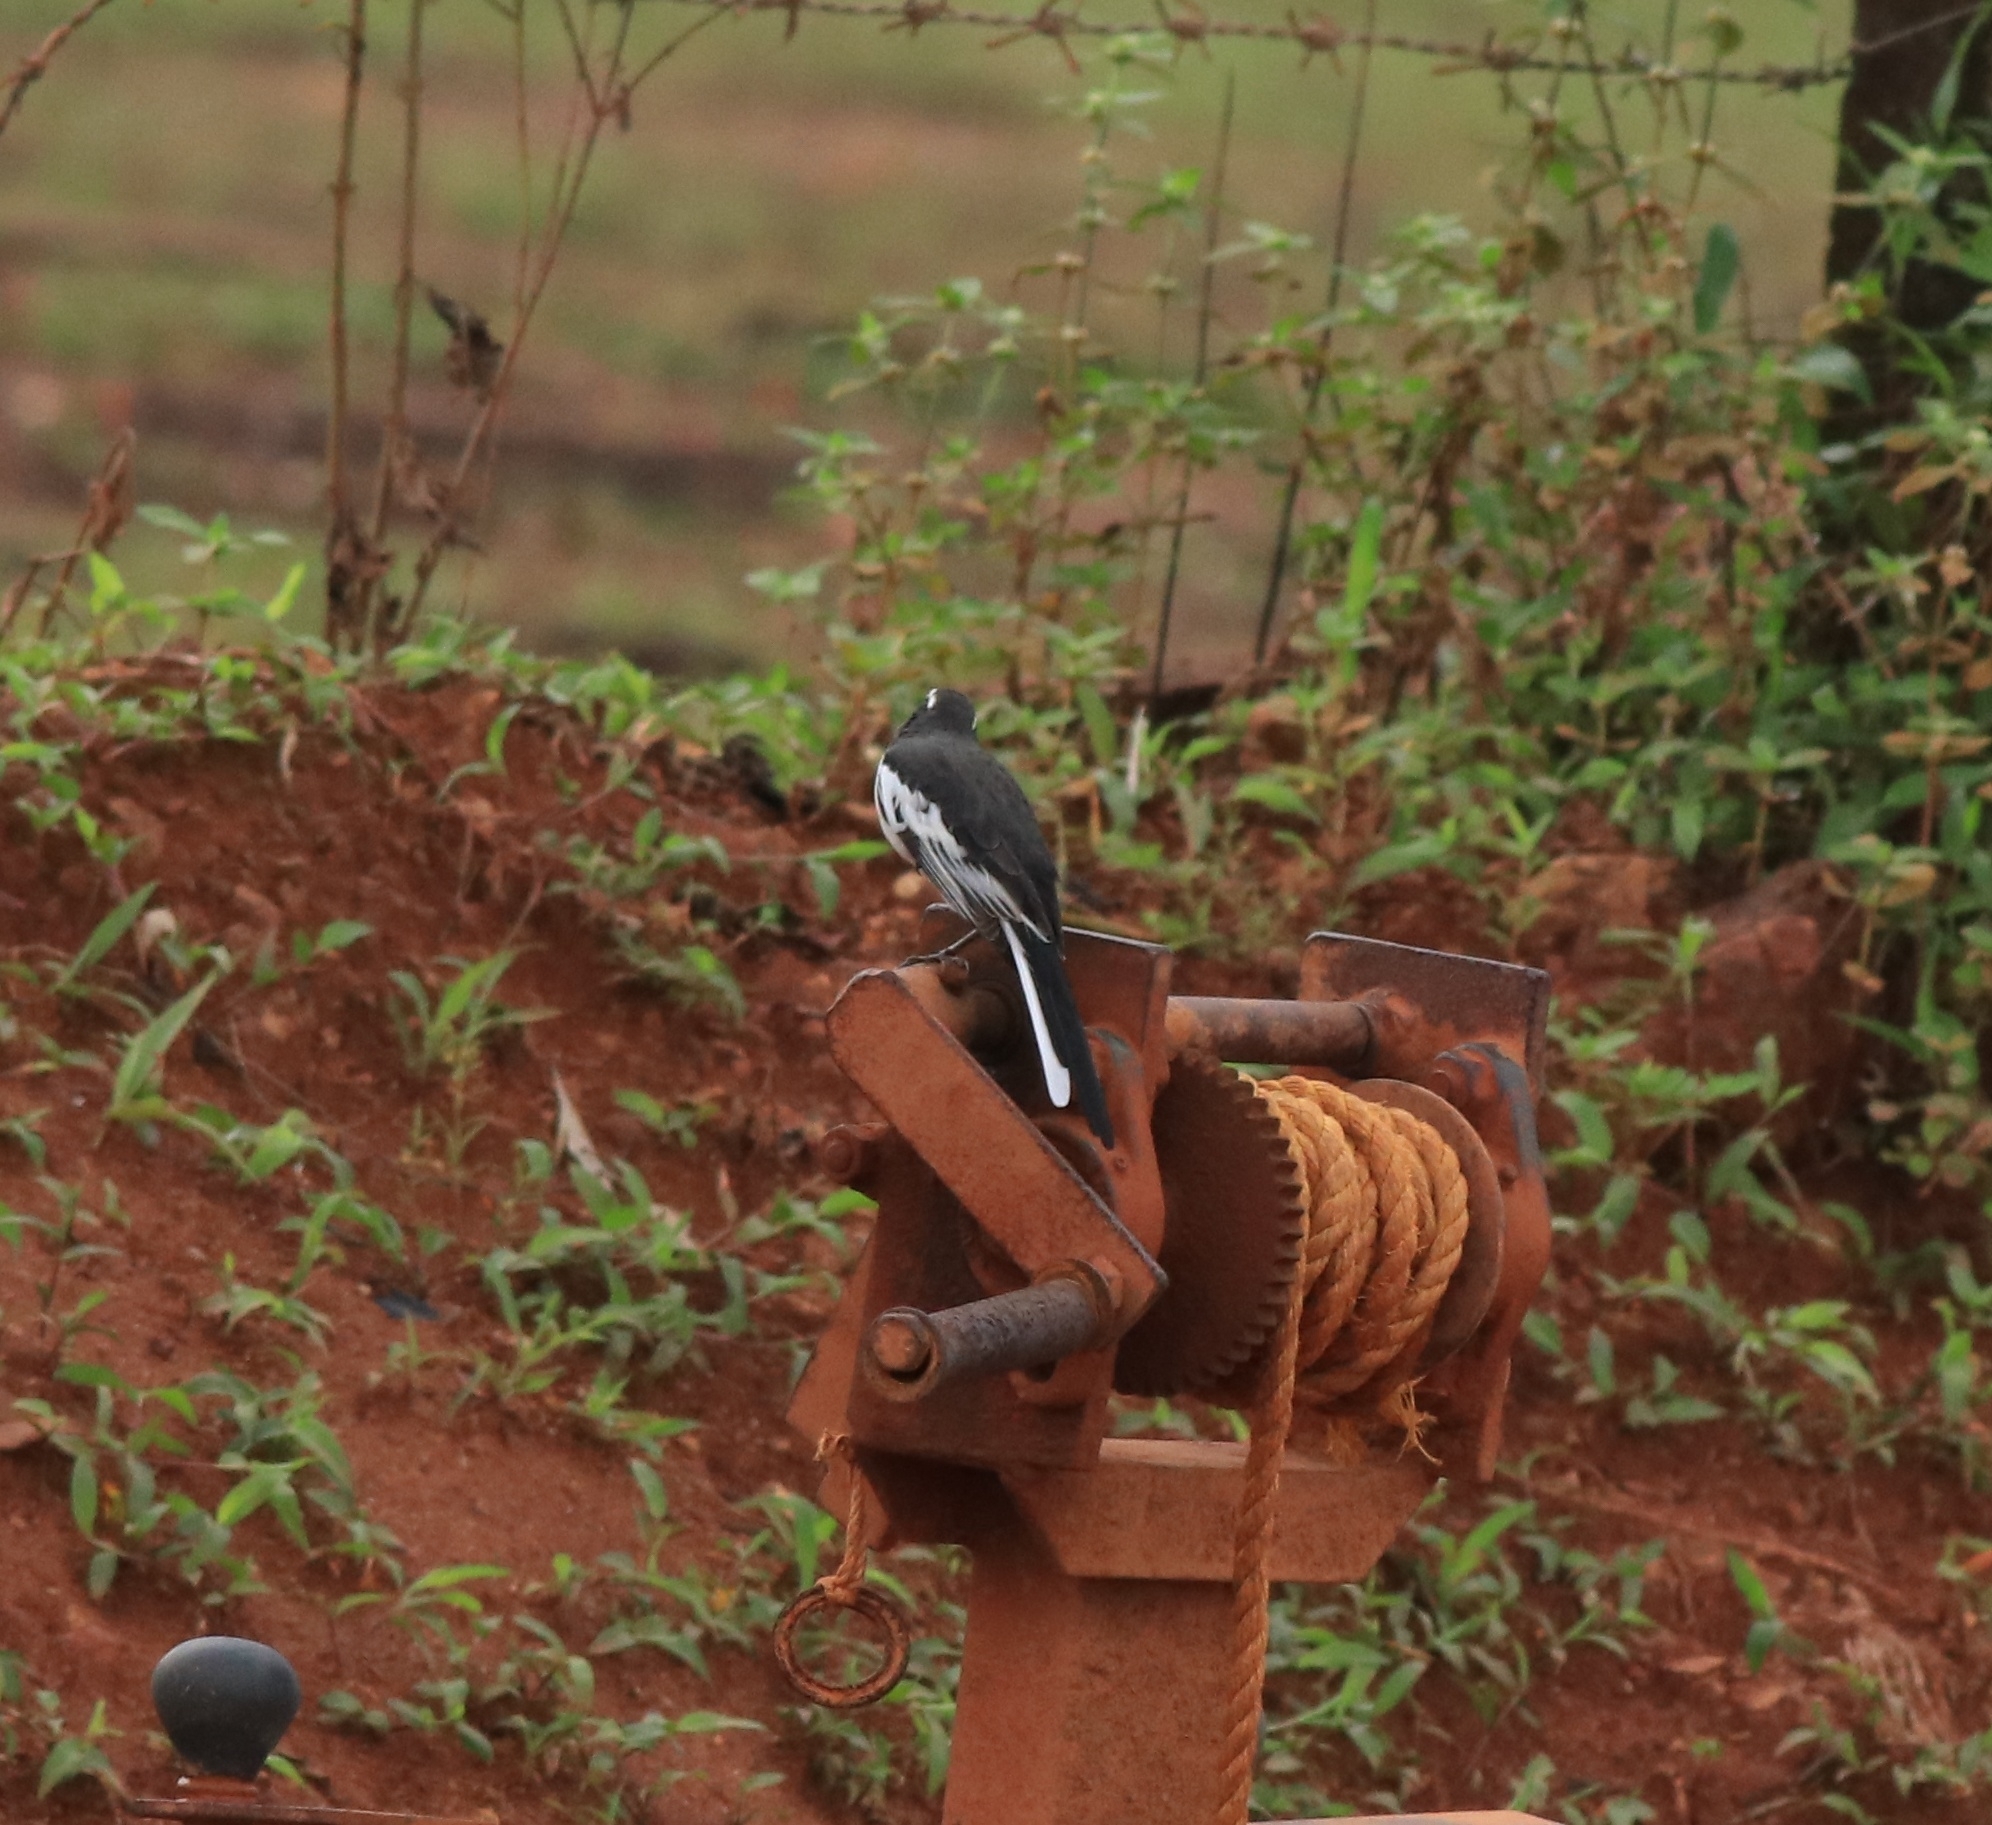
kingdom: Animalia
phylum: Chordata
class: Aves
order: Passeriformes
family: Motacillidae
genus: Motacilla
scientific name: Motacilla maderaspatensis
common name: White-browed wagtail
